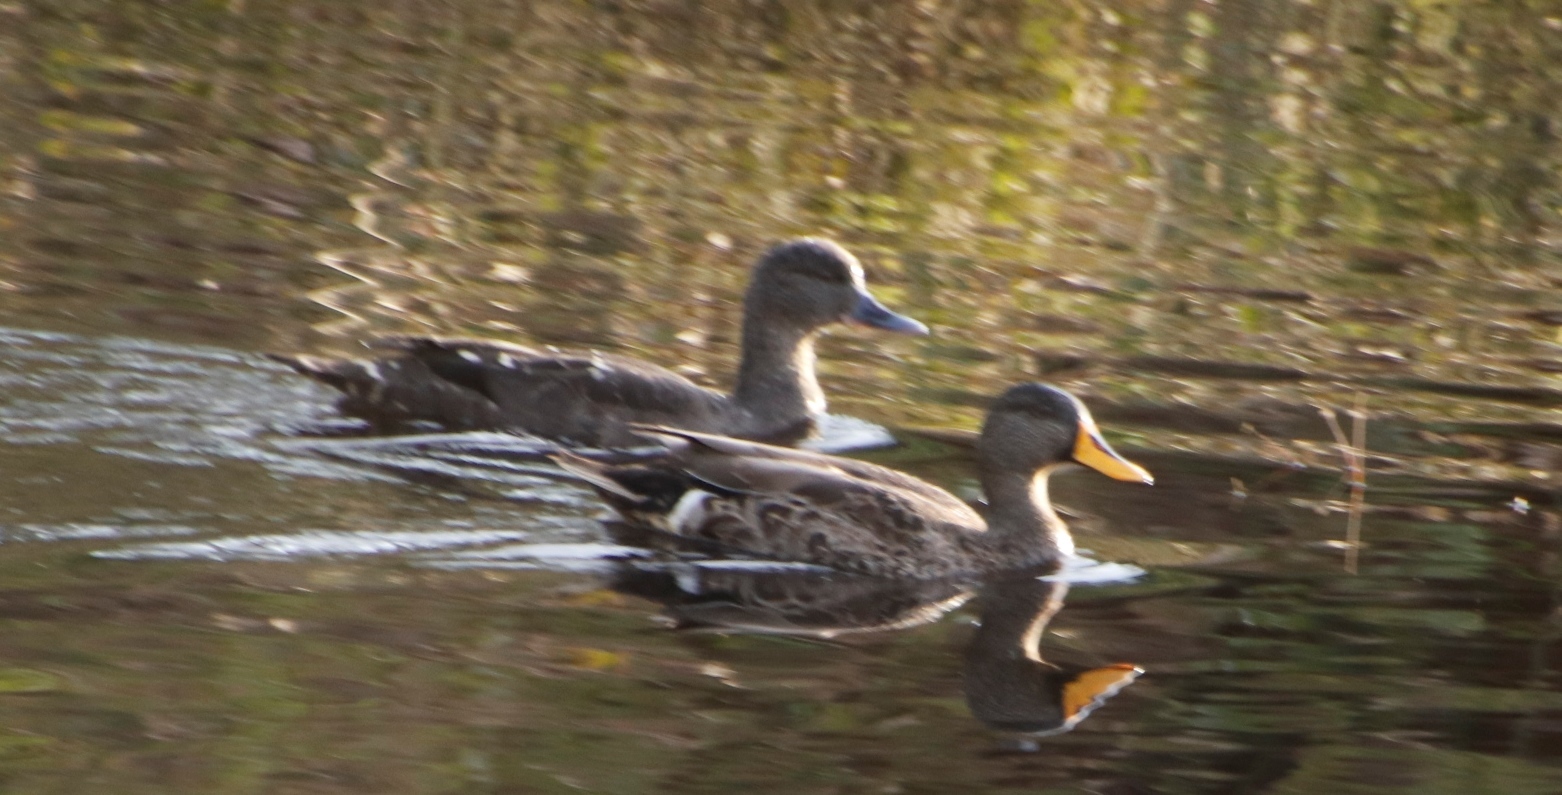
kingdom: Animalia
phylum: Chordata
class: Aves
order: Anseriformes
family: Anatidae
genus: Anas
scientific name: Anas undulata
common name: Yellow-billed duck
